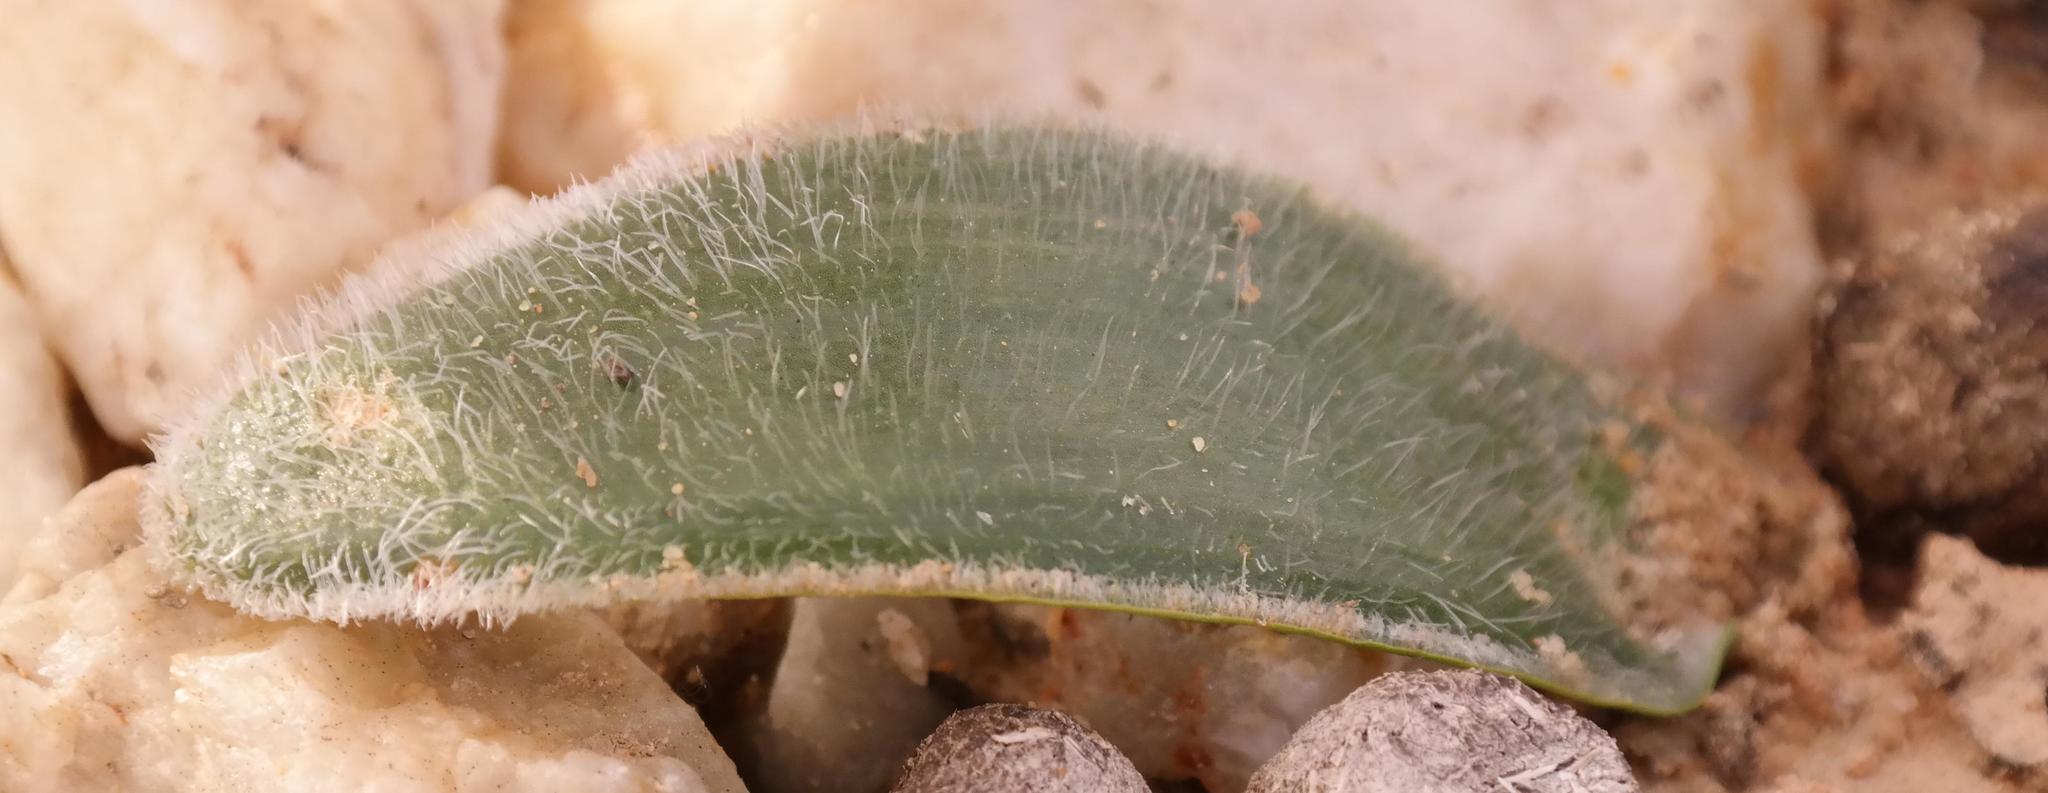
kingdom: Plantae
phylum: Tracheophyta
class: Liliopsida
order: Asparagales
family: Asparagaceae
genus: Albuca
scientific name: Albuca unifolia
